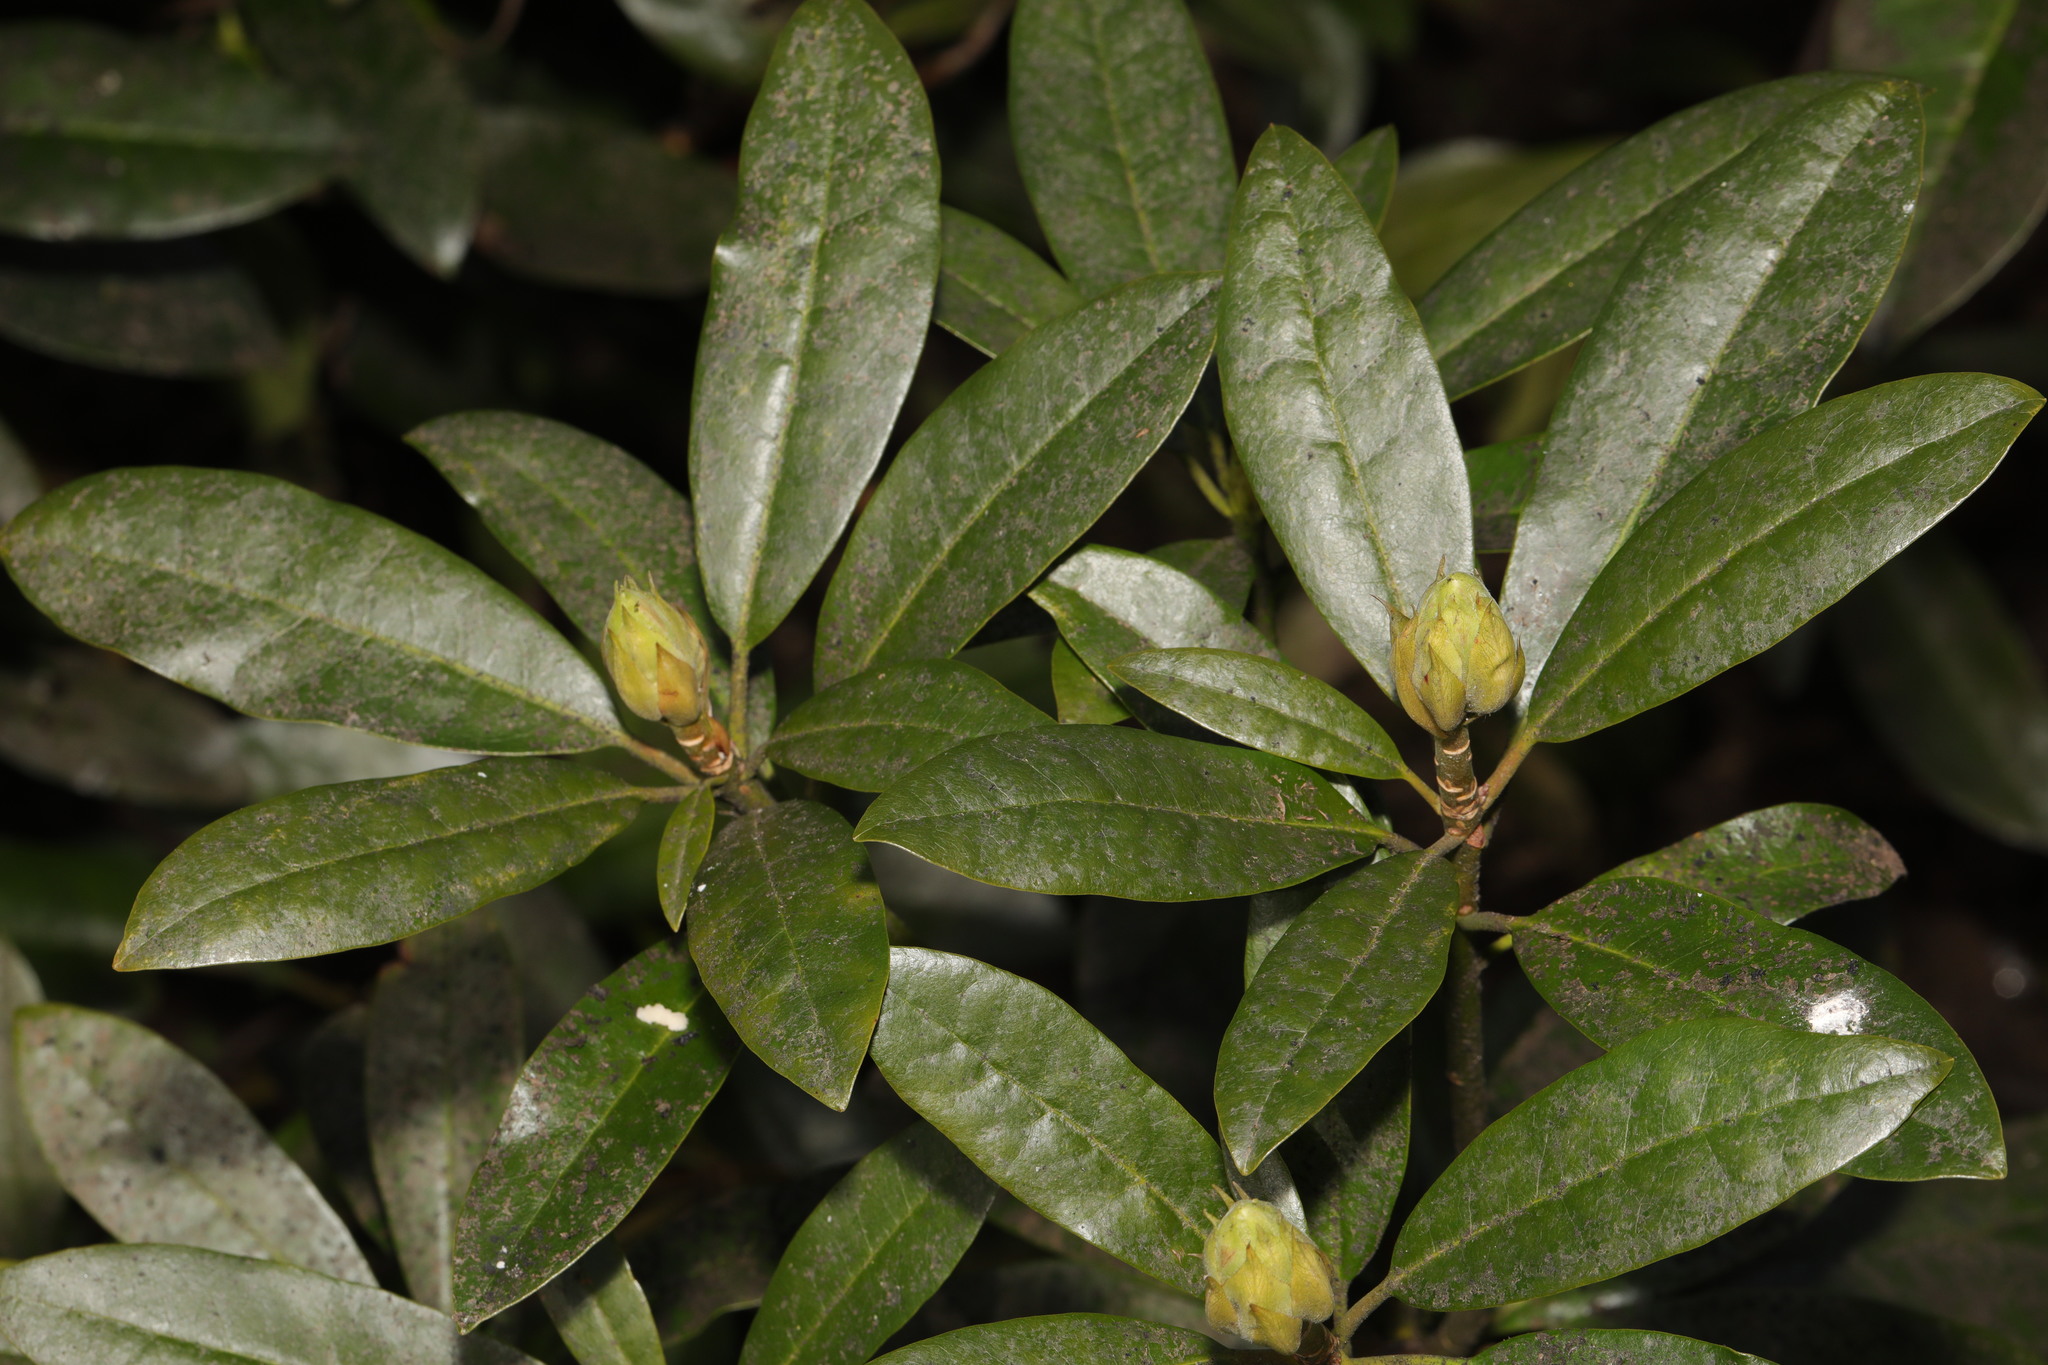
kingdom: Plantae
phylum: Tracheophyta
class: Magnoliopsida
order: Ericales
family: Ericaceae
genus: Rhododendron
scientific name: Rhododendron ponticum
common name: Rhododendron
